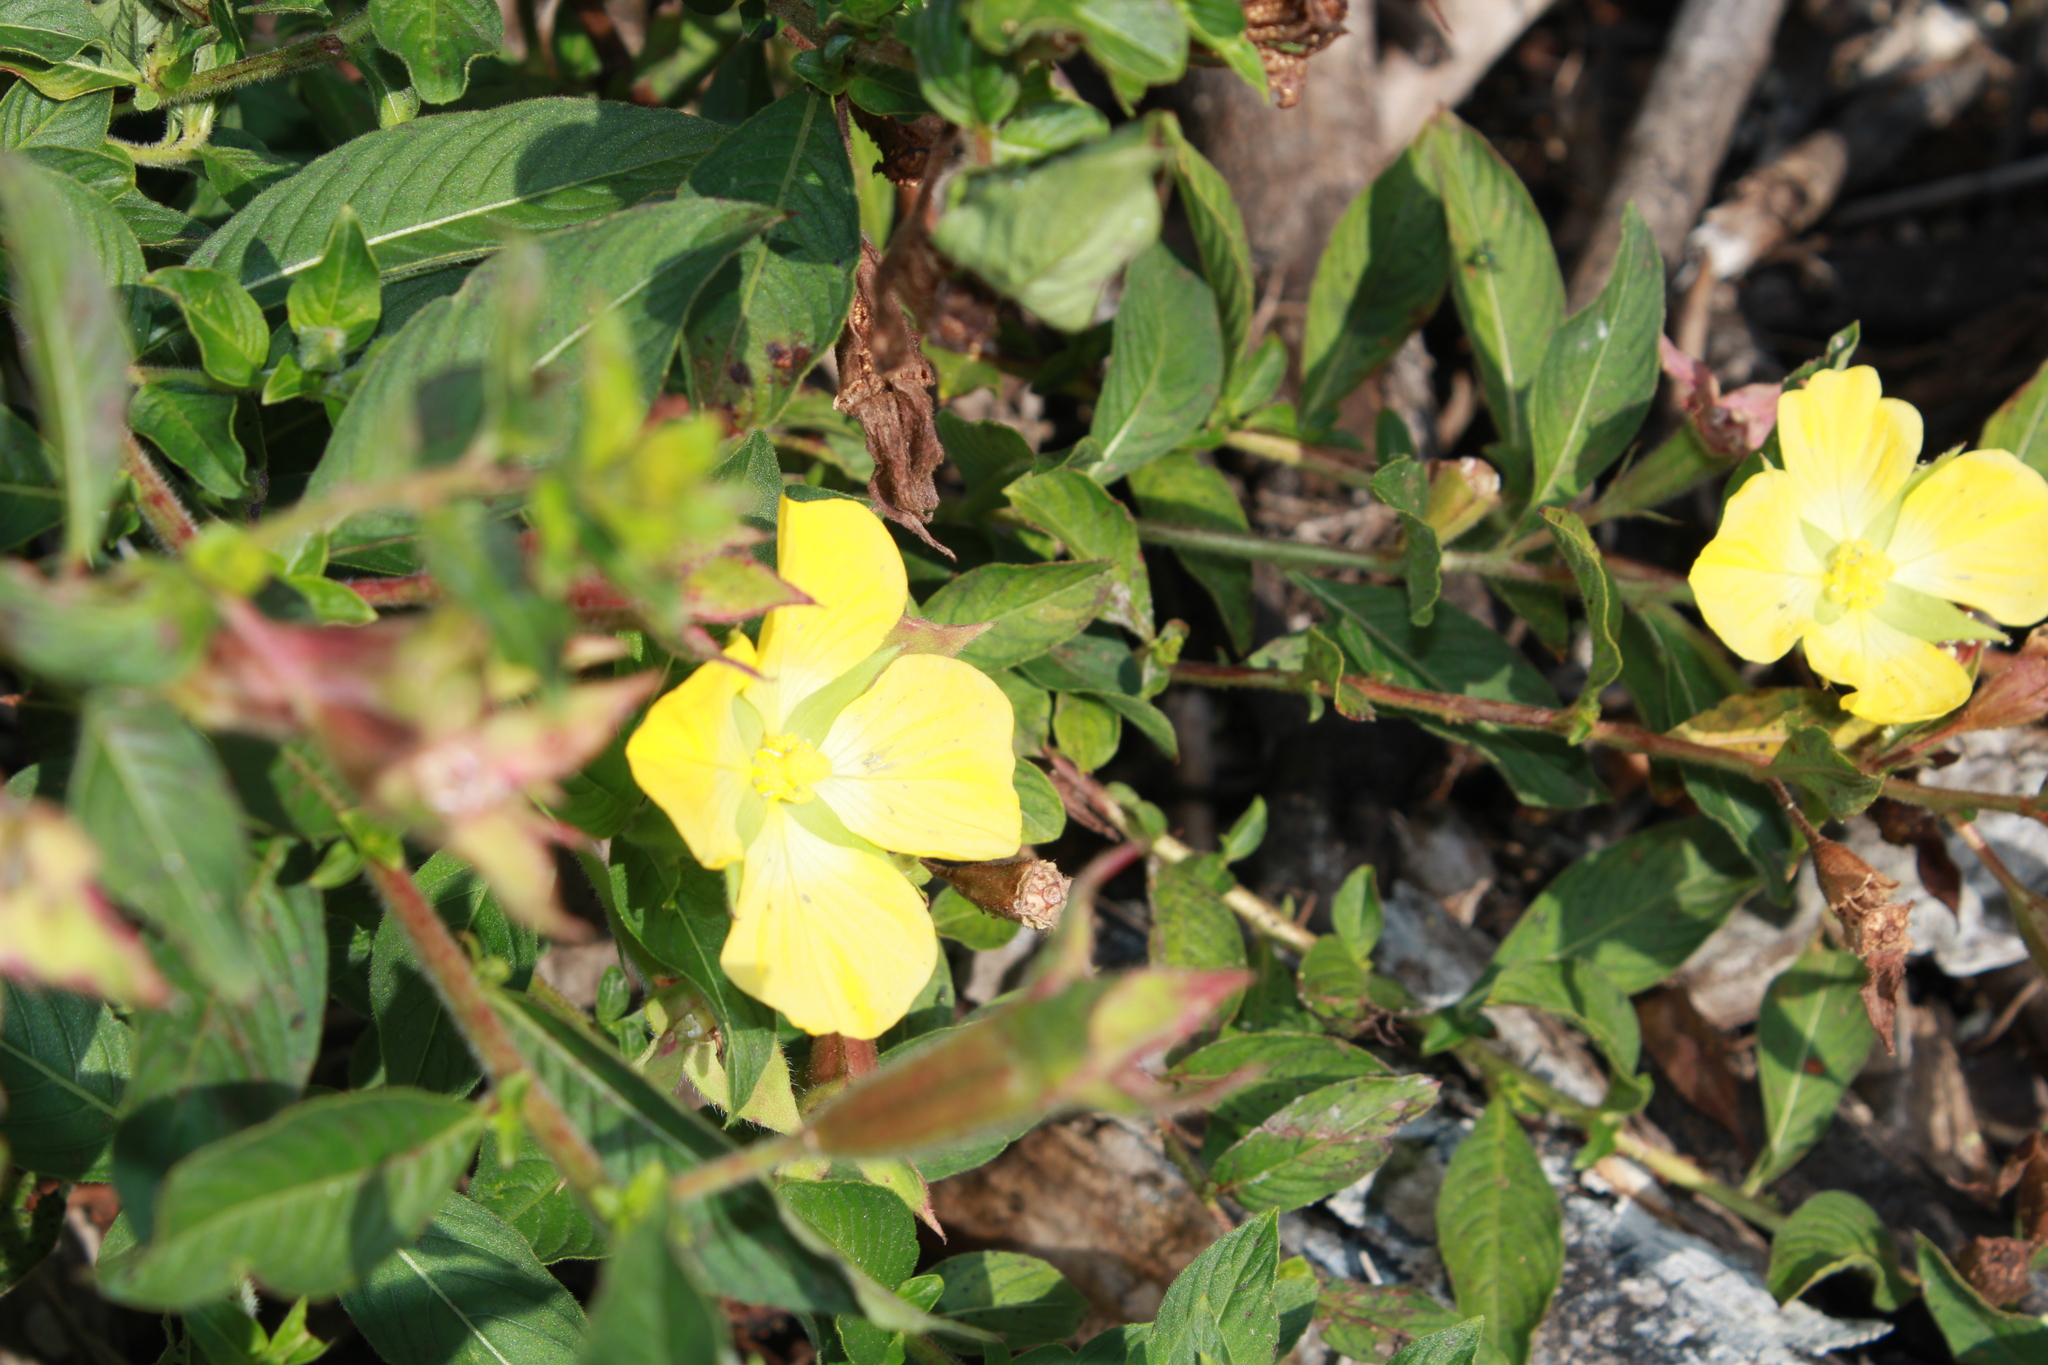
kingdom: Plantae
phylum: Tracheophyta
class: Magnoliopsida
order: Myrtales
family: Onagraceae
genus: Ludwigia
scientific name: Ludwigia peruviana
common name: Peruvian primrose-willow
